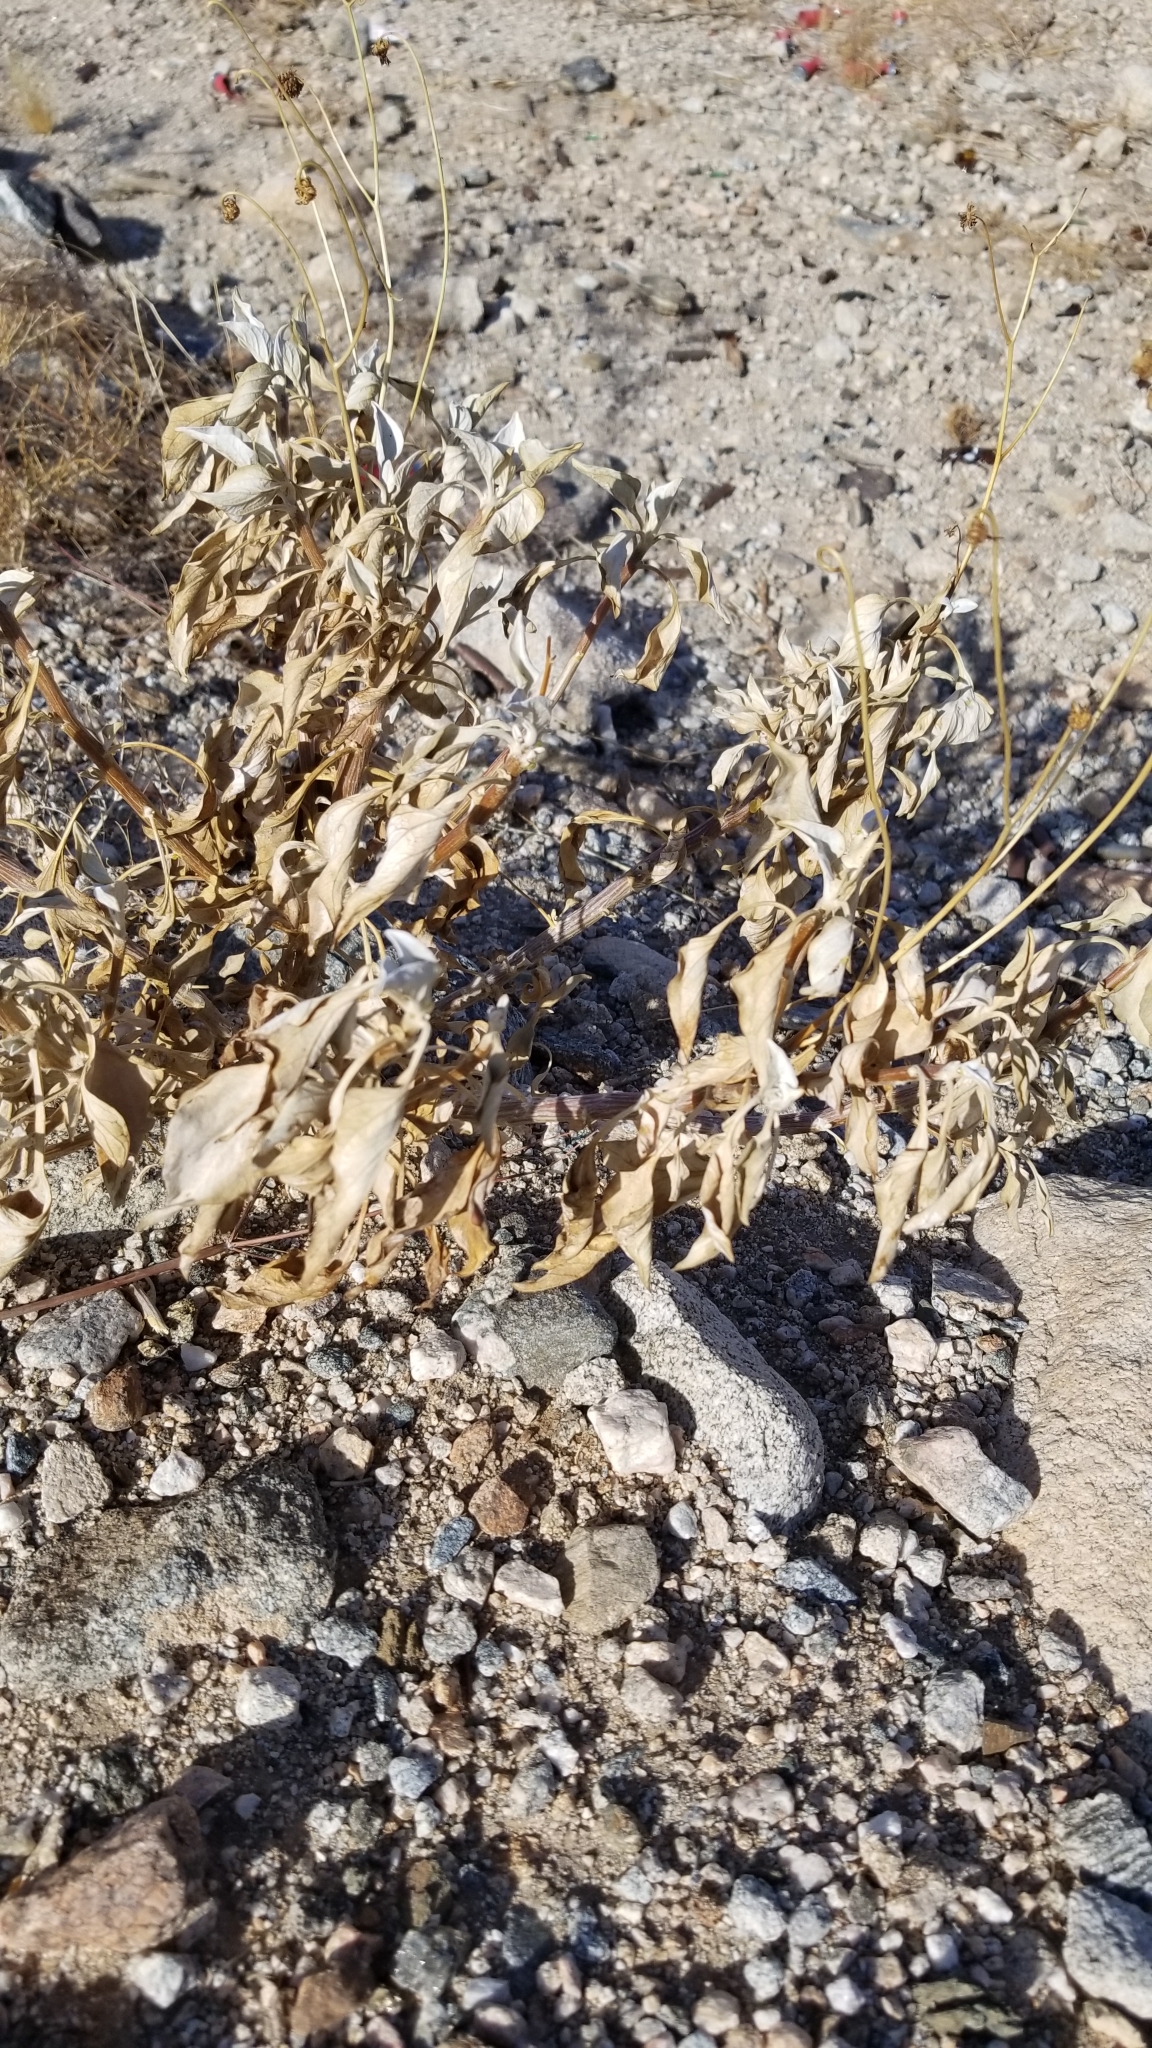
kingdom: Plantae
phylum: Tracheophyta
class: Magnoliopsida
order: Asterales
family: Asteraceae
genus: Encelia
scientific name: Encelia farinosa
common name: Brittlebush
